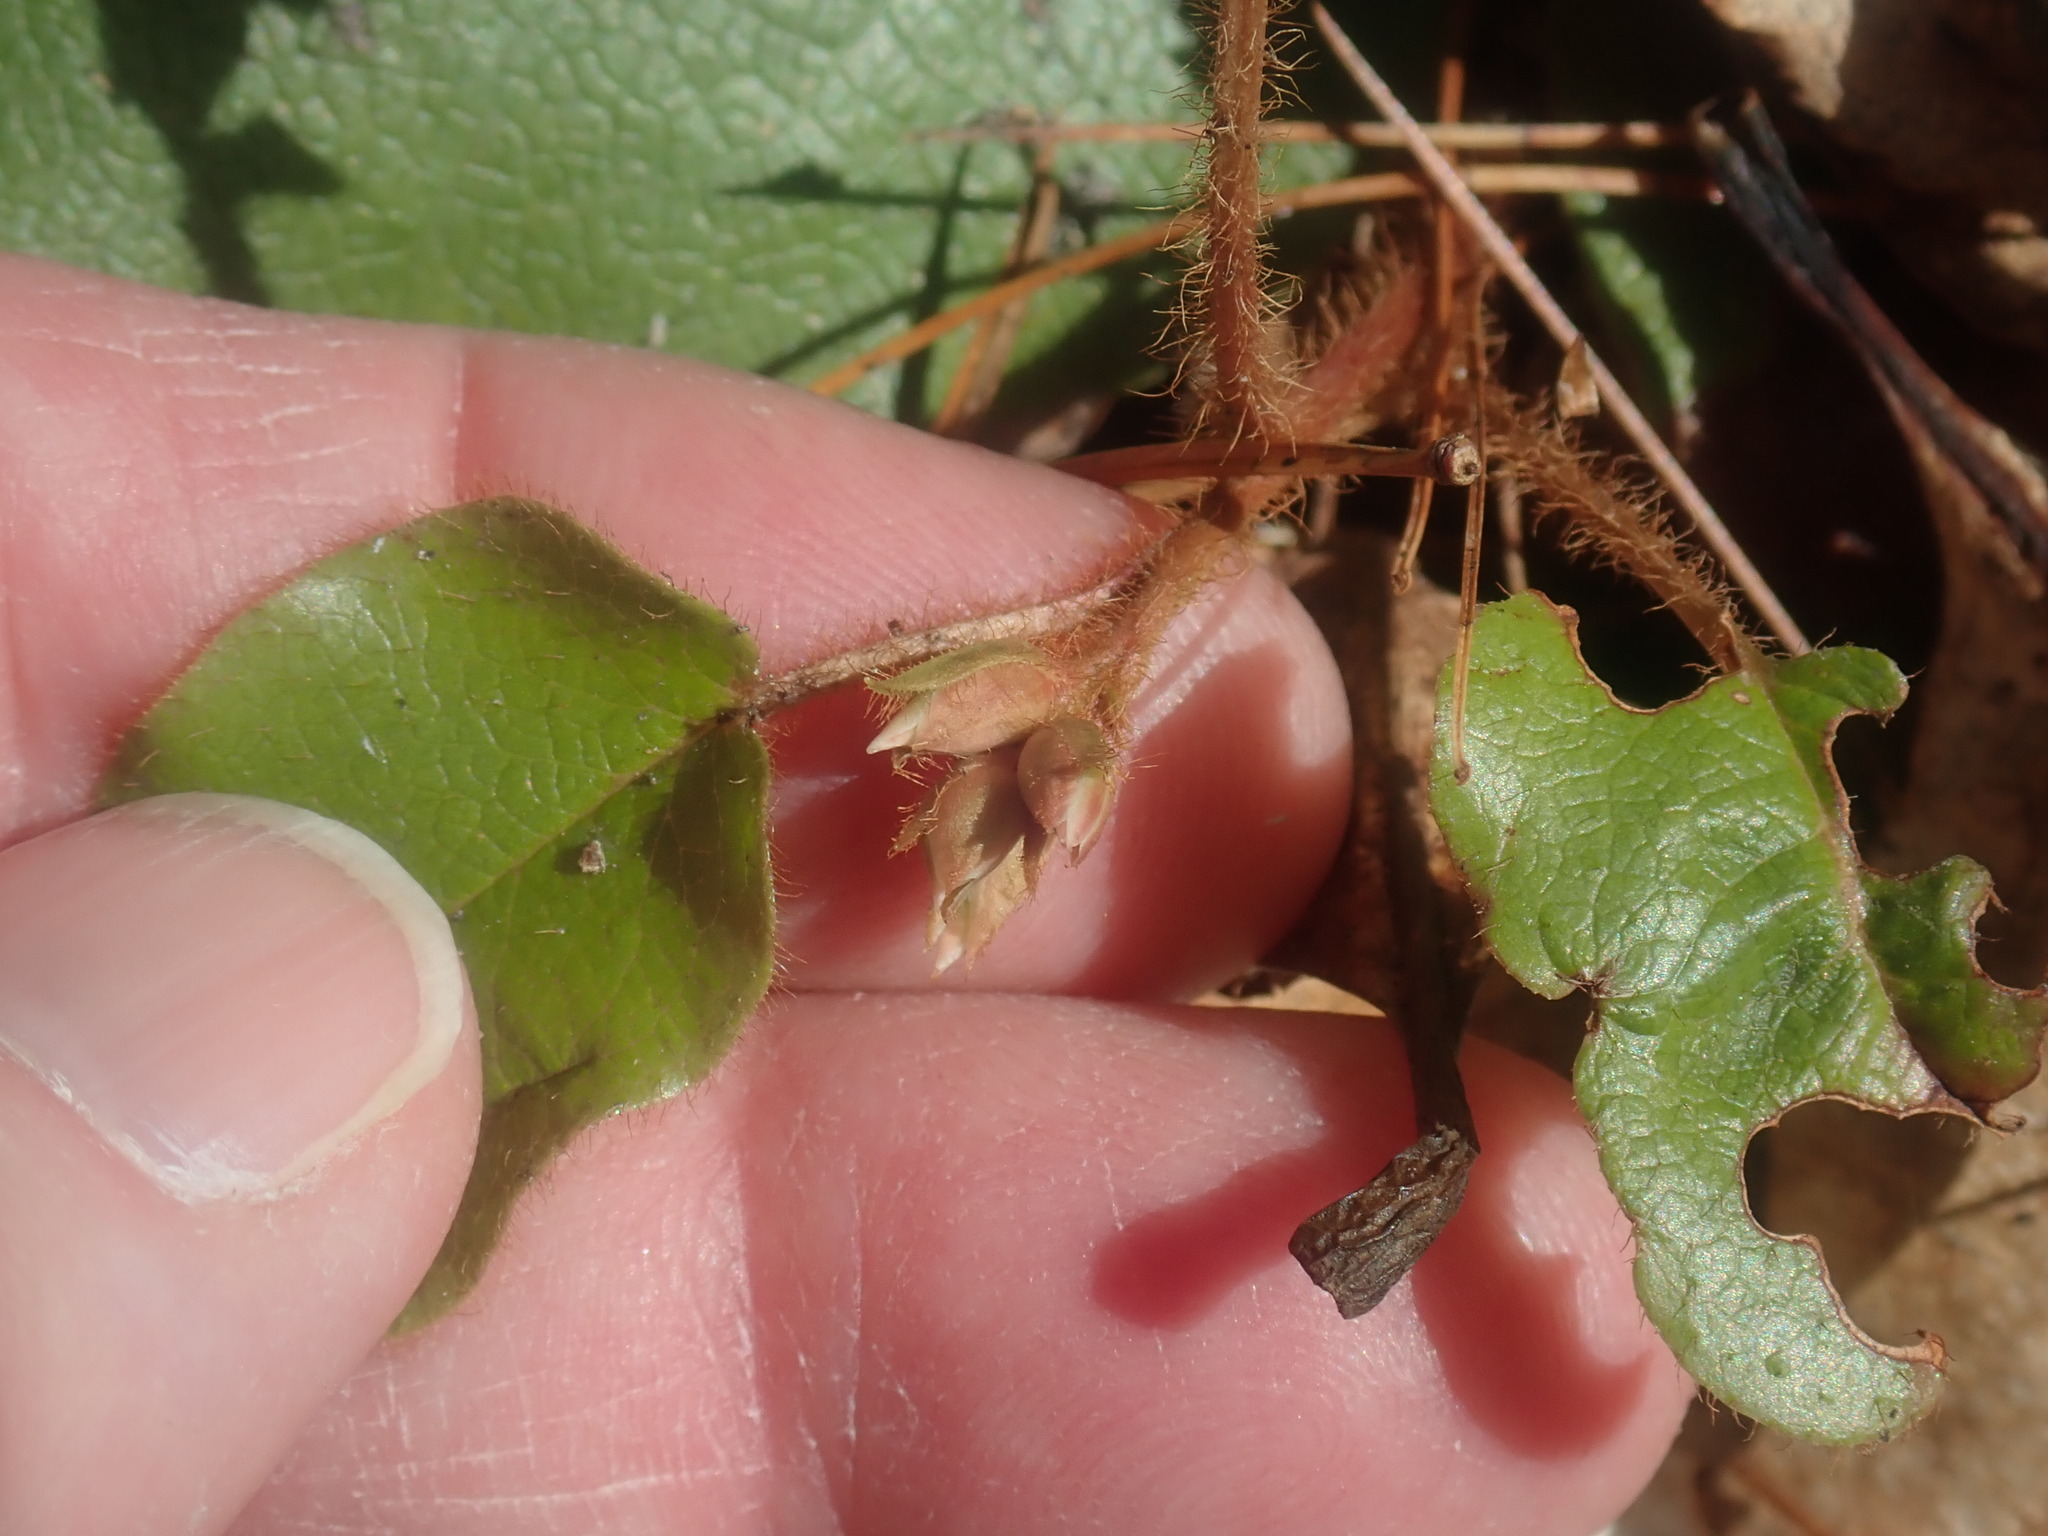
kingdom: Plantae
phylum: Tracheophyta
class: Magnoliopsida
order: Ericales
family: Ericaceae
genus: Epigaea
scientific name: Epigaea repens
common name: Gravelroot
